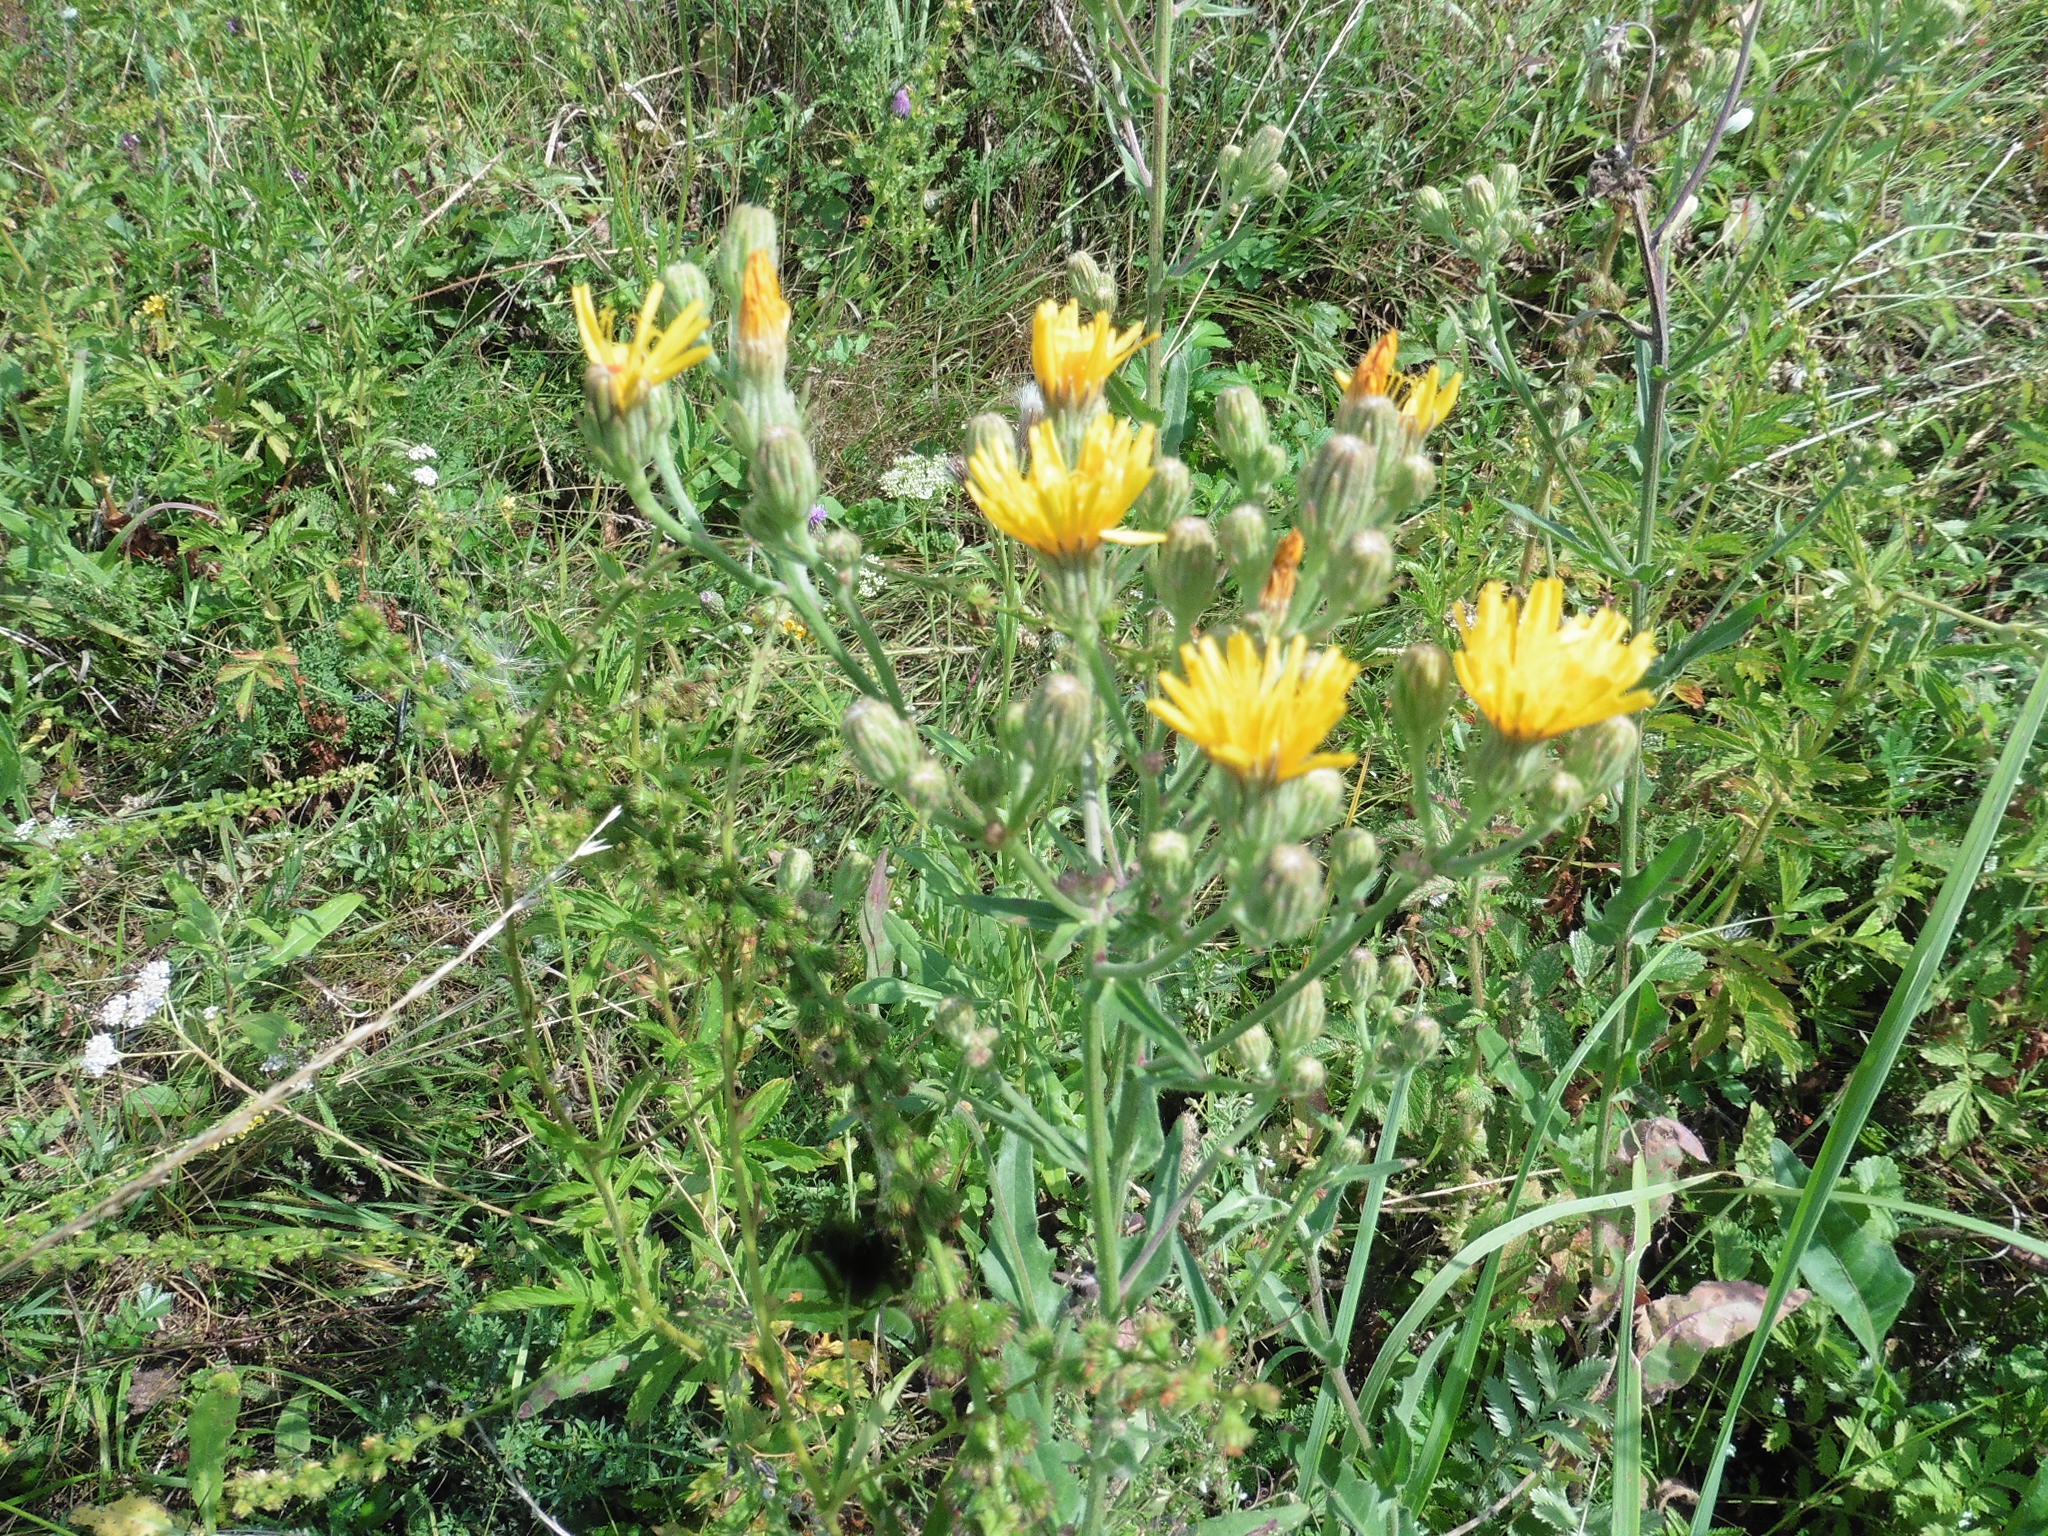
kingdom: Plantae
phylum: Tracheophyta
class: Magnoliopsida
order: Asterales
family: Asteraceae
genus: Picris
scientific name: Picris hieracioides
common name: Hawkweed oxtongue
